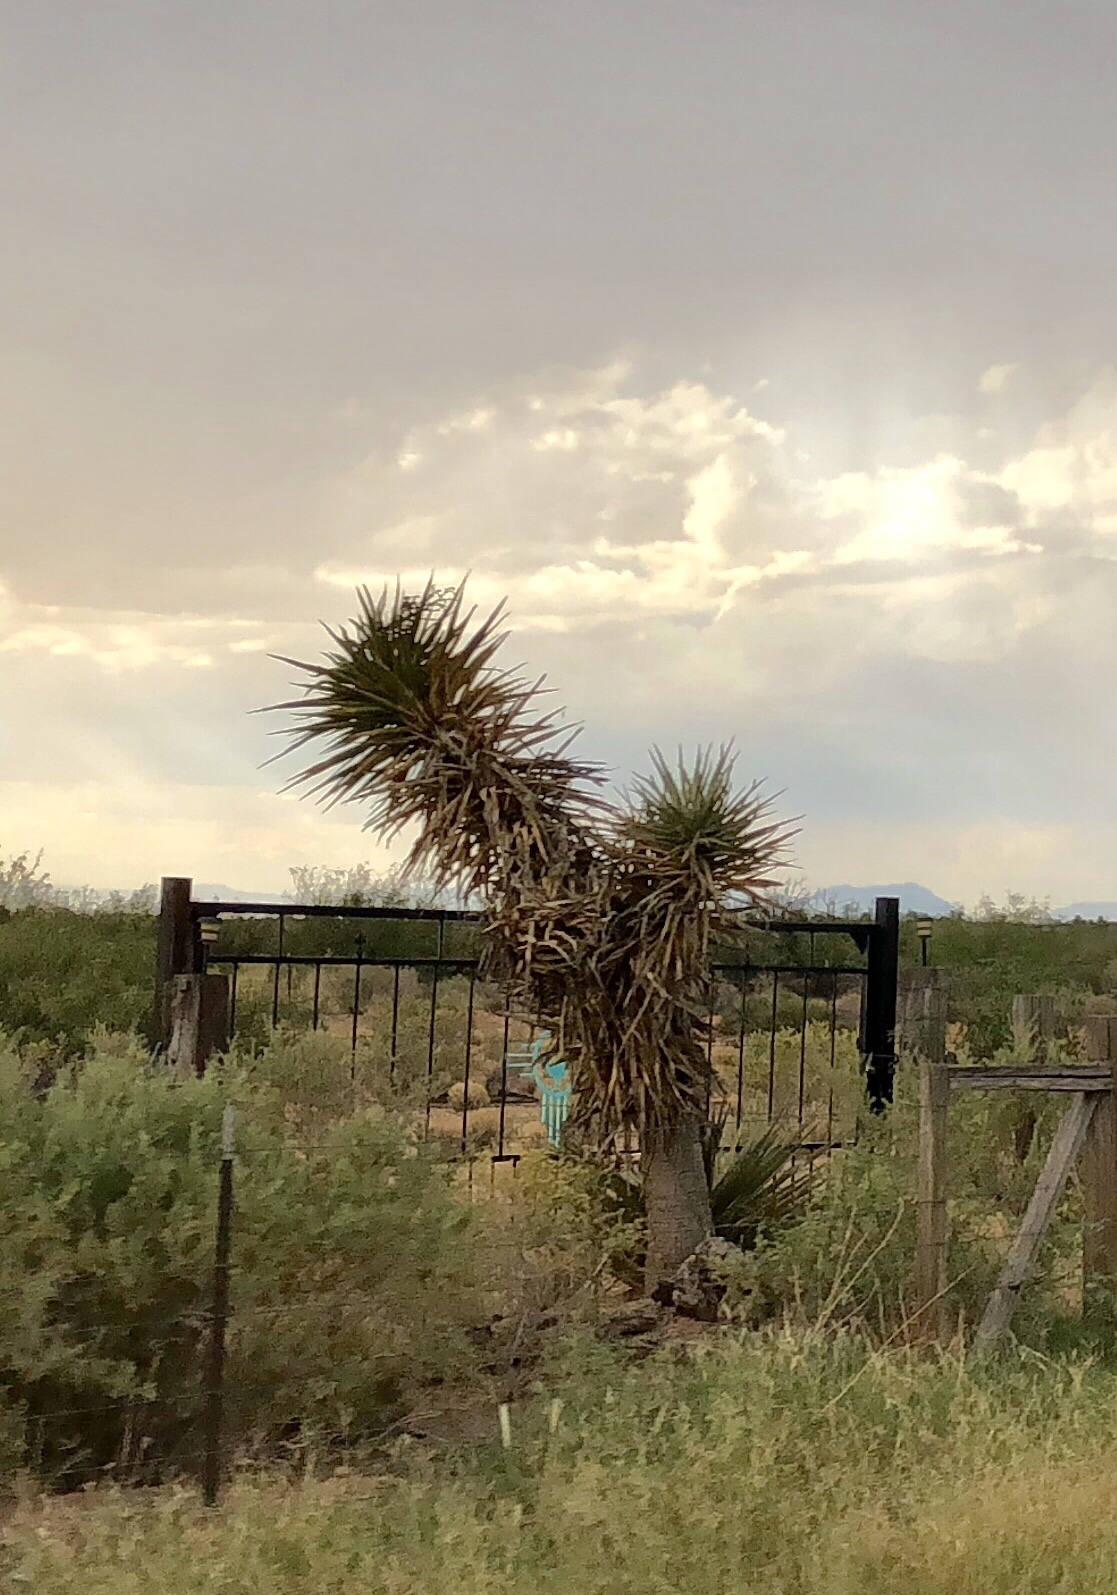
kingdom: Plantae
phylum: Tracheophyta
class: Liliopsida
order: Asparagales
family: Asparagaceae
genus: Yucca
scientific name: Yucca treculiana
